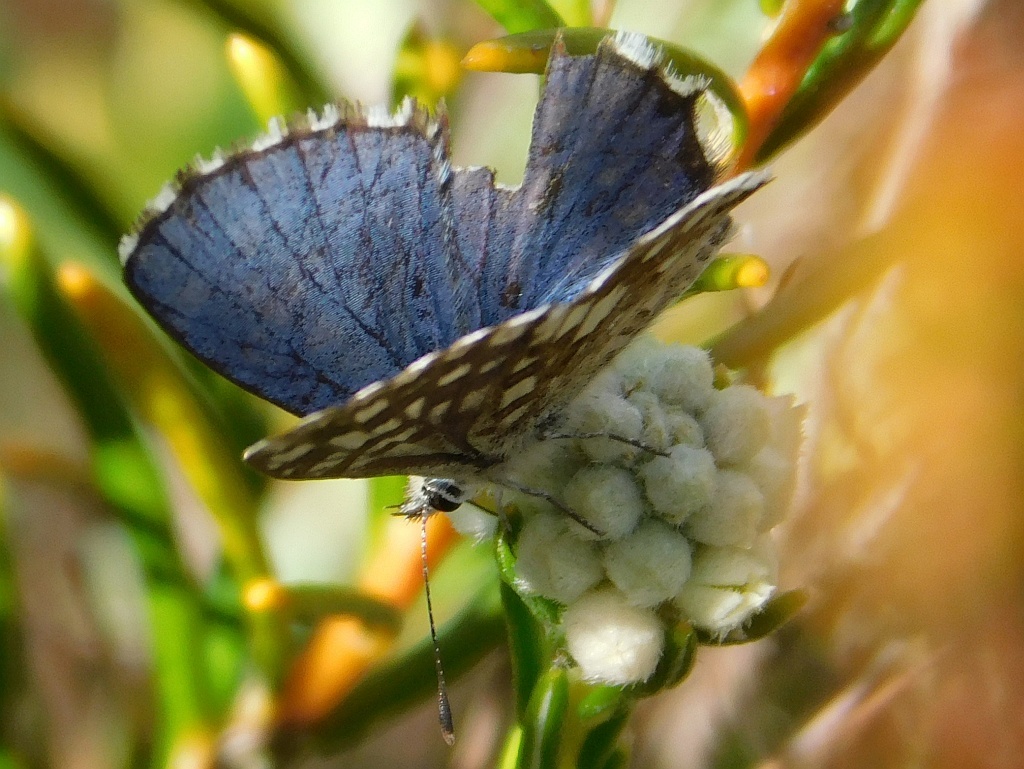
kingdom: Animalia
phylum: Arthropoda
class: Insecta
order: Lepidoptera
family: Lycaenidae
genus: Tarucus
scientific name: Tarucus thespis
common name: Vivid dotted blue
